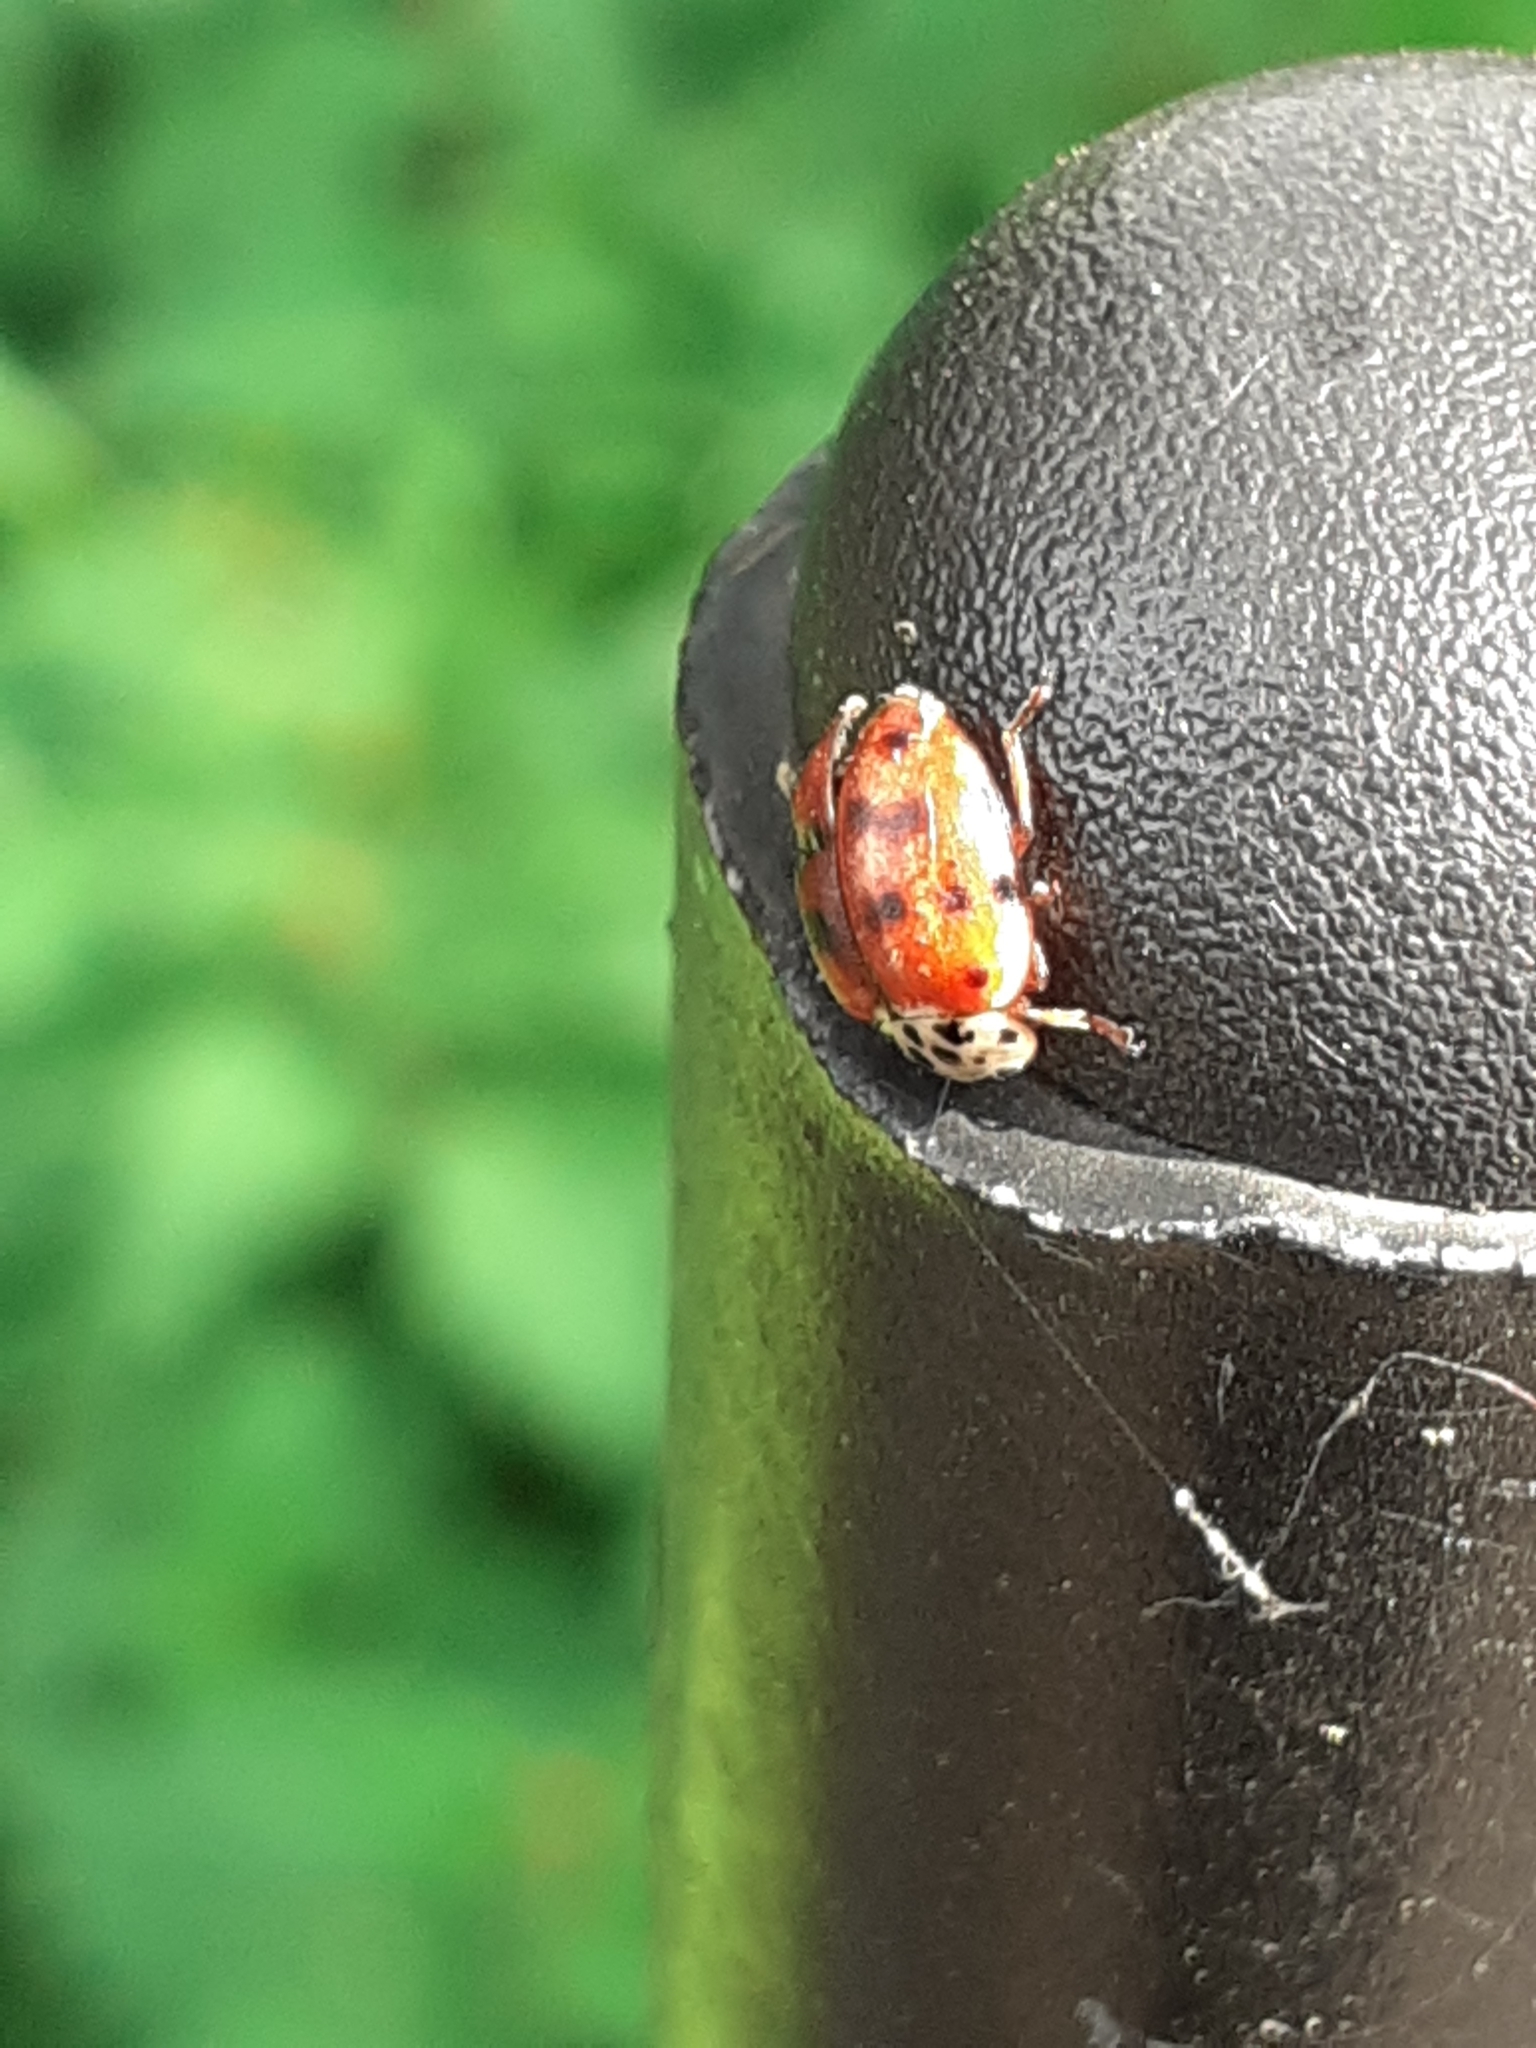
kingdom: Animalia
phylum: Arthropoda
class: Insecta
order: Coleoptera
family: Coccinellidae
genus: Harmonia
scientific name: Harmonia quadripunctata
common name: Cream-streaked ladybird
